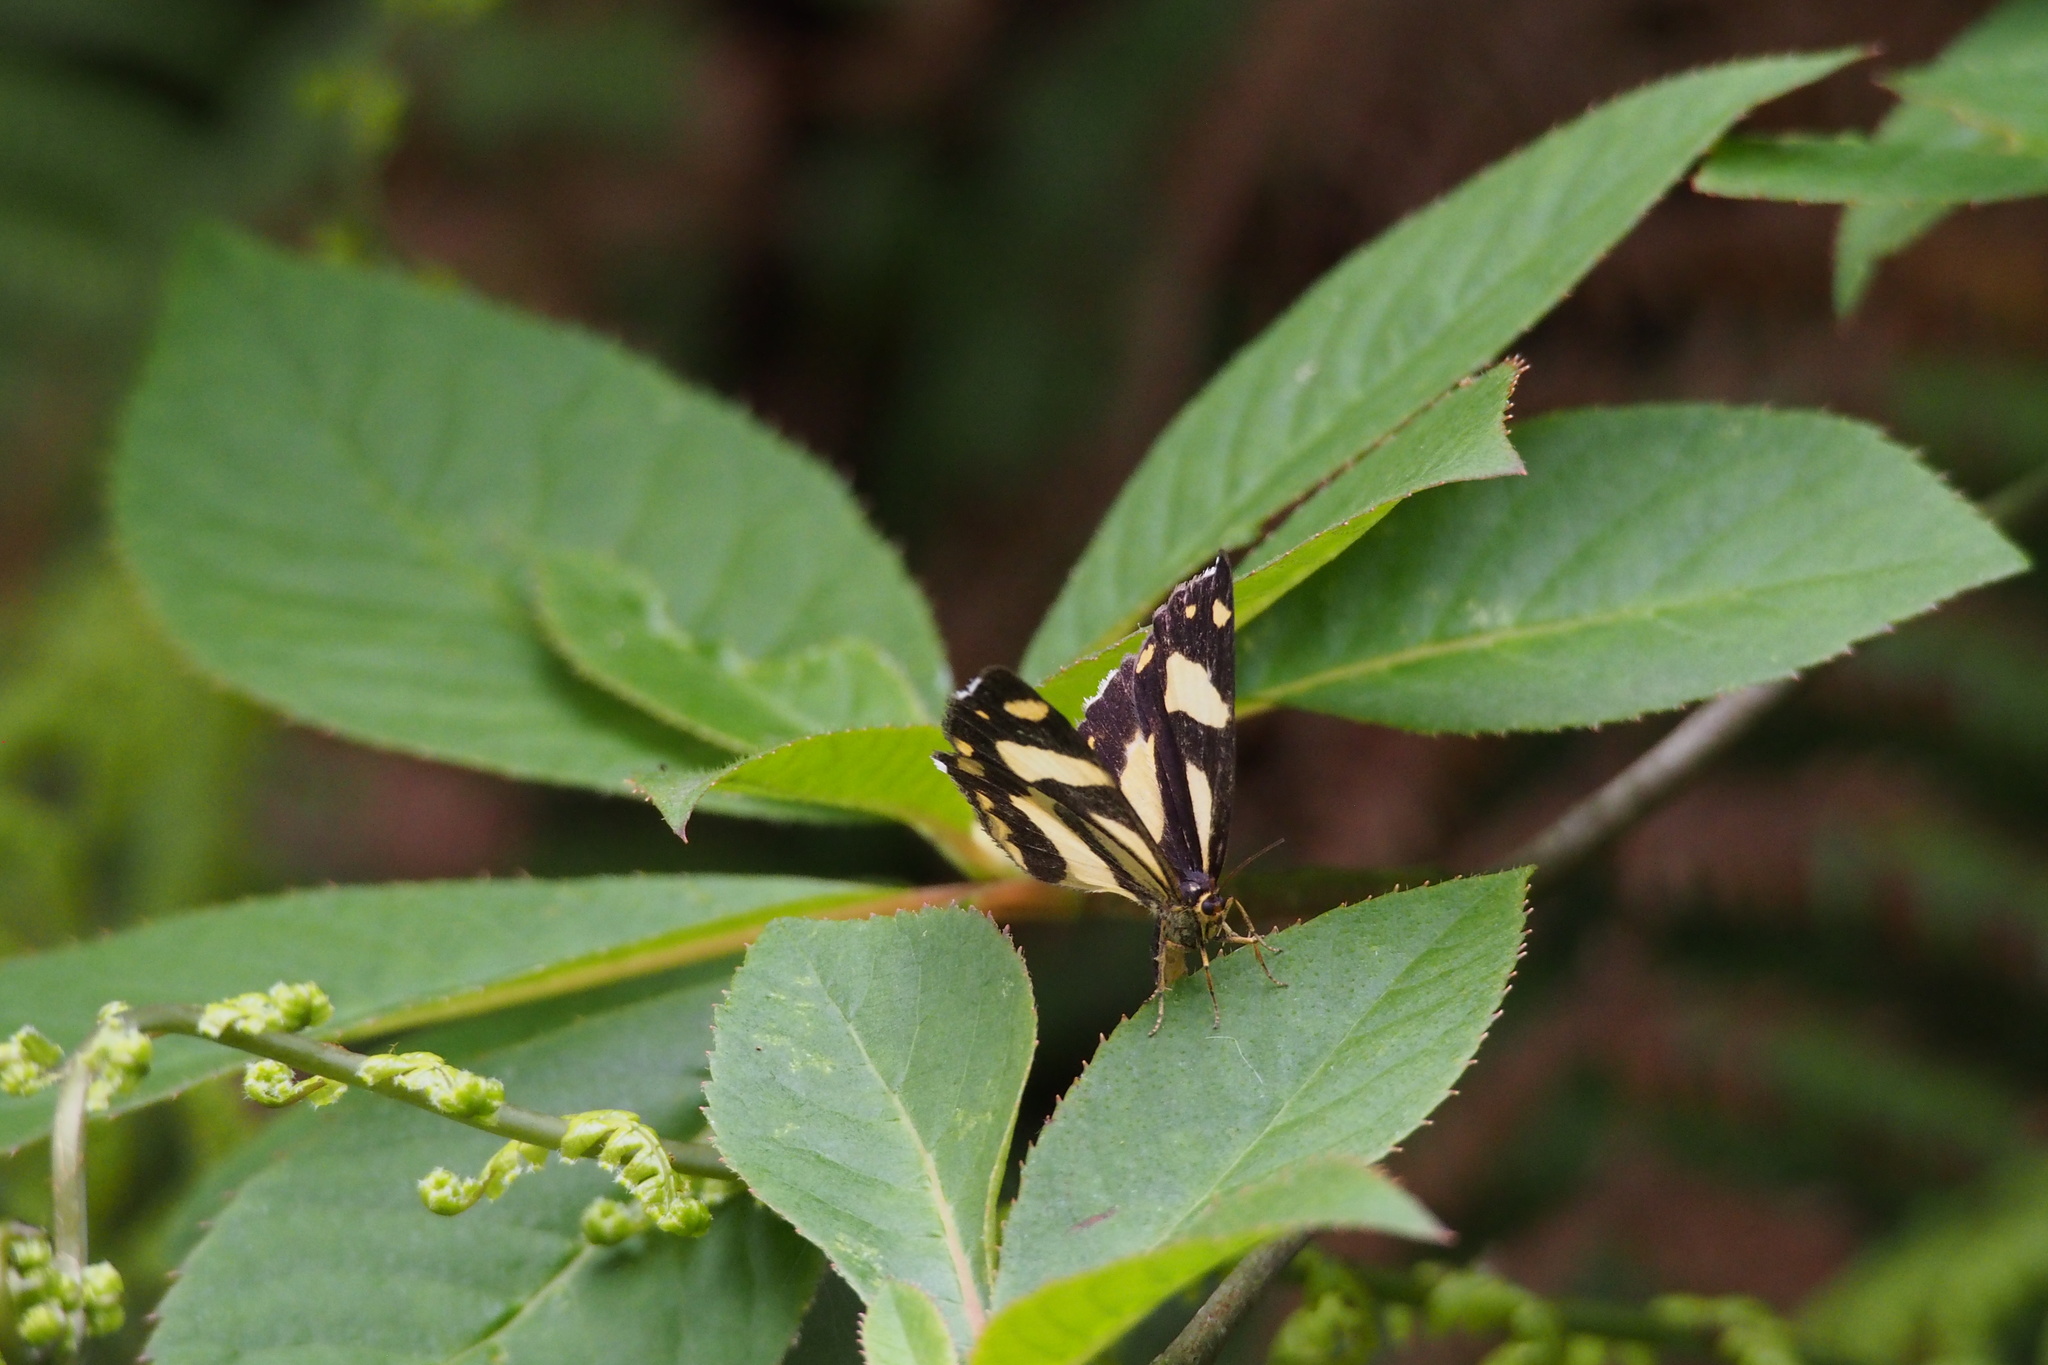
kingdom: Animalia
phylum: Arthropoda
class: Insecta
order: Lepidoptera
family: Epicopeiidae
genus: Psychostrophia
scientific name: Psychostrophia melanargia
